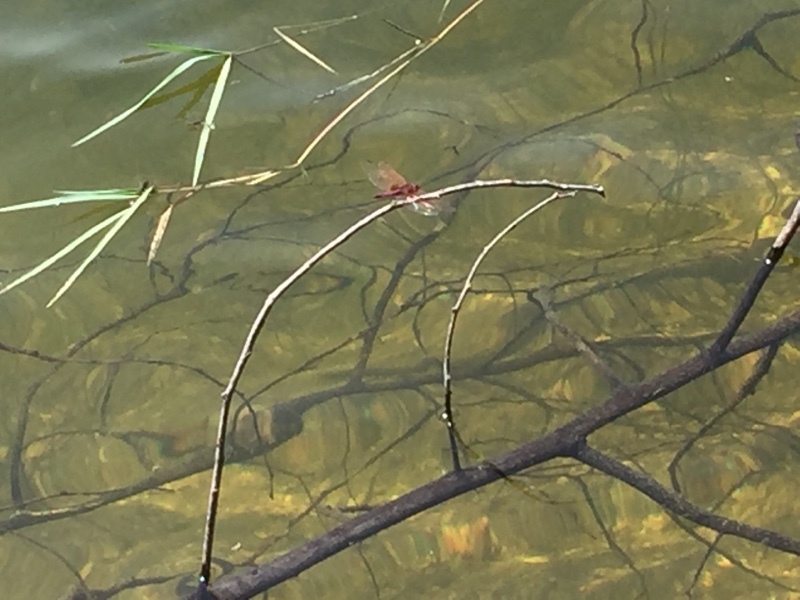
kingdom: Animalia
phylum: Arthropoda
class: Insecta
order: Odonata
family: Libellulidae
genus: Trithemis
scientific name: Trithemis annulata
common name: Violet dropwing
